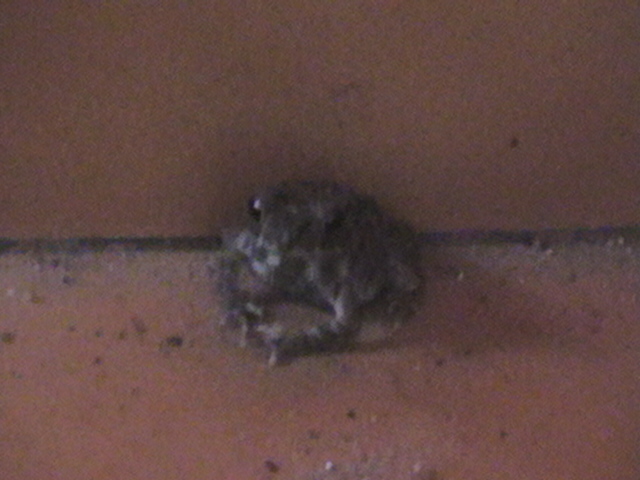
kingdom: Animalia
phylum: Chordata
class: Amphibia
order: Anura
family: Bufonidae
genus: Duttaphrynus
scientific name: Duttaphrynus melanostictus
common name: Common sunda toad
